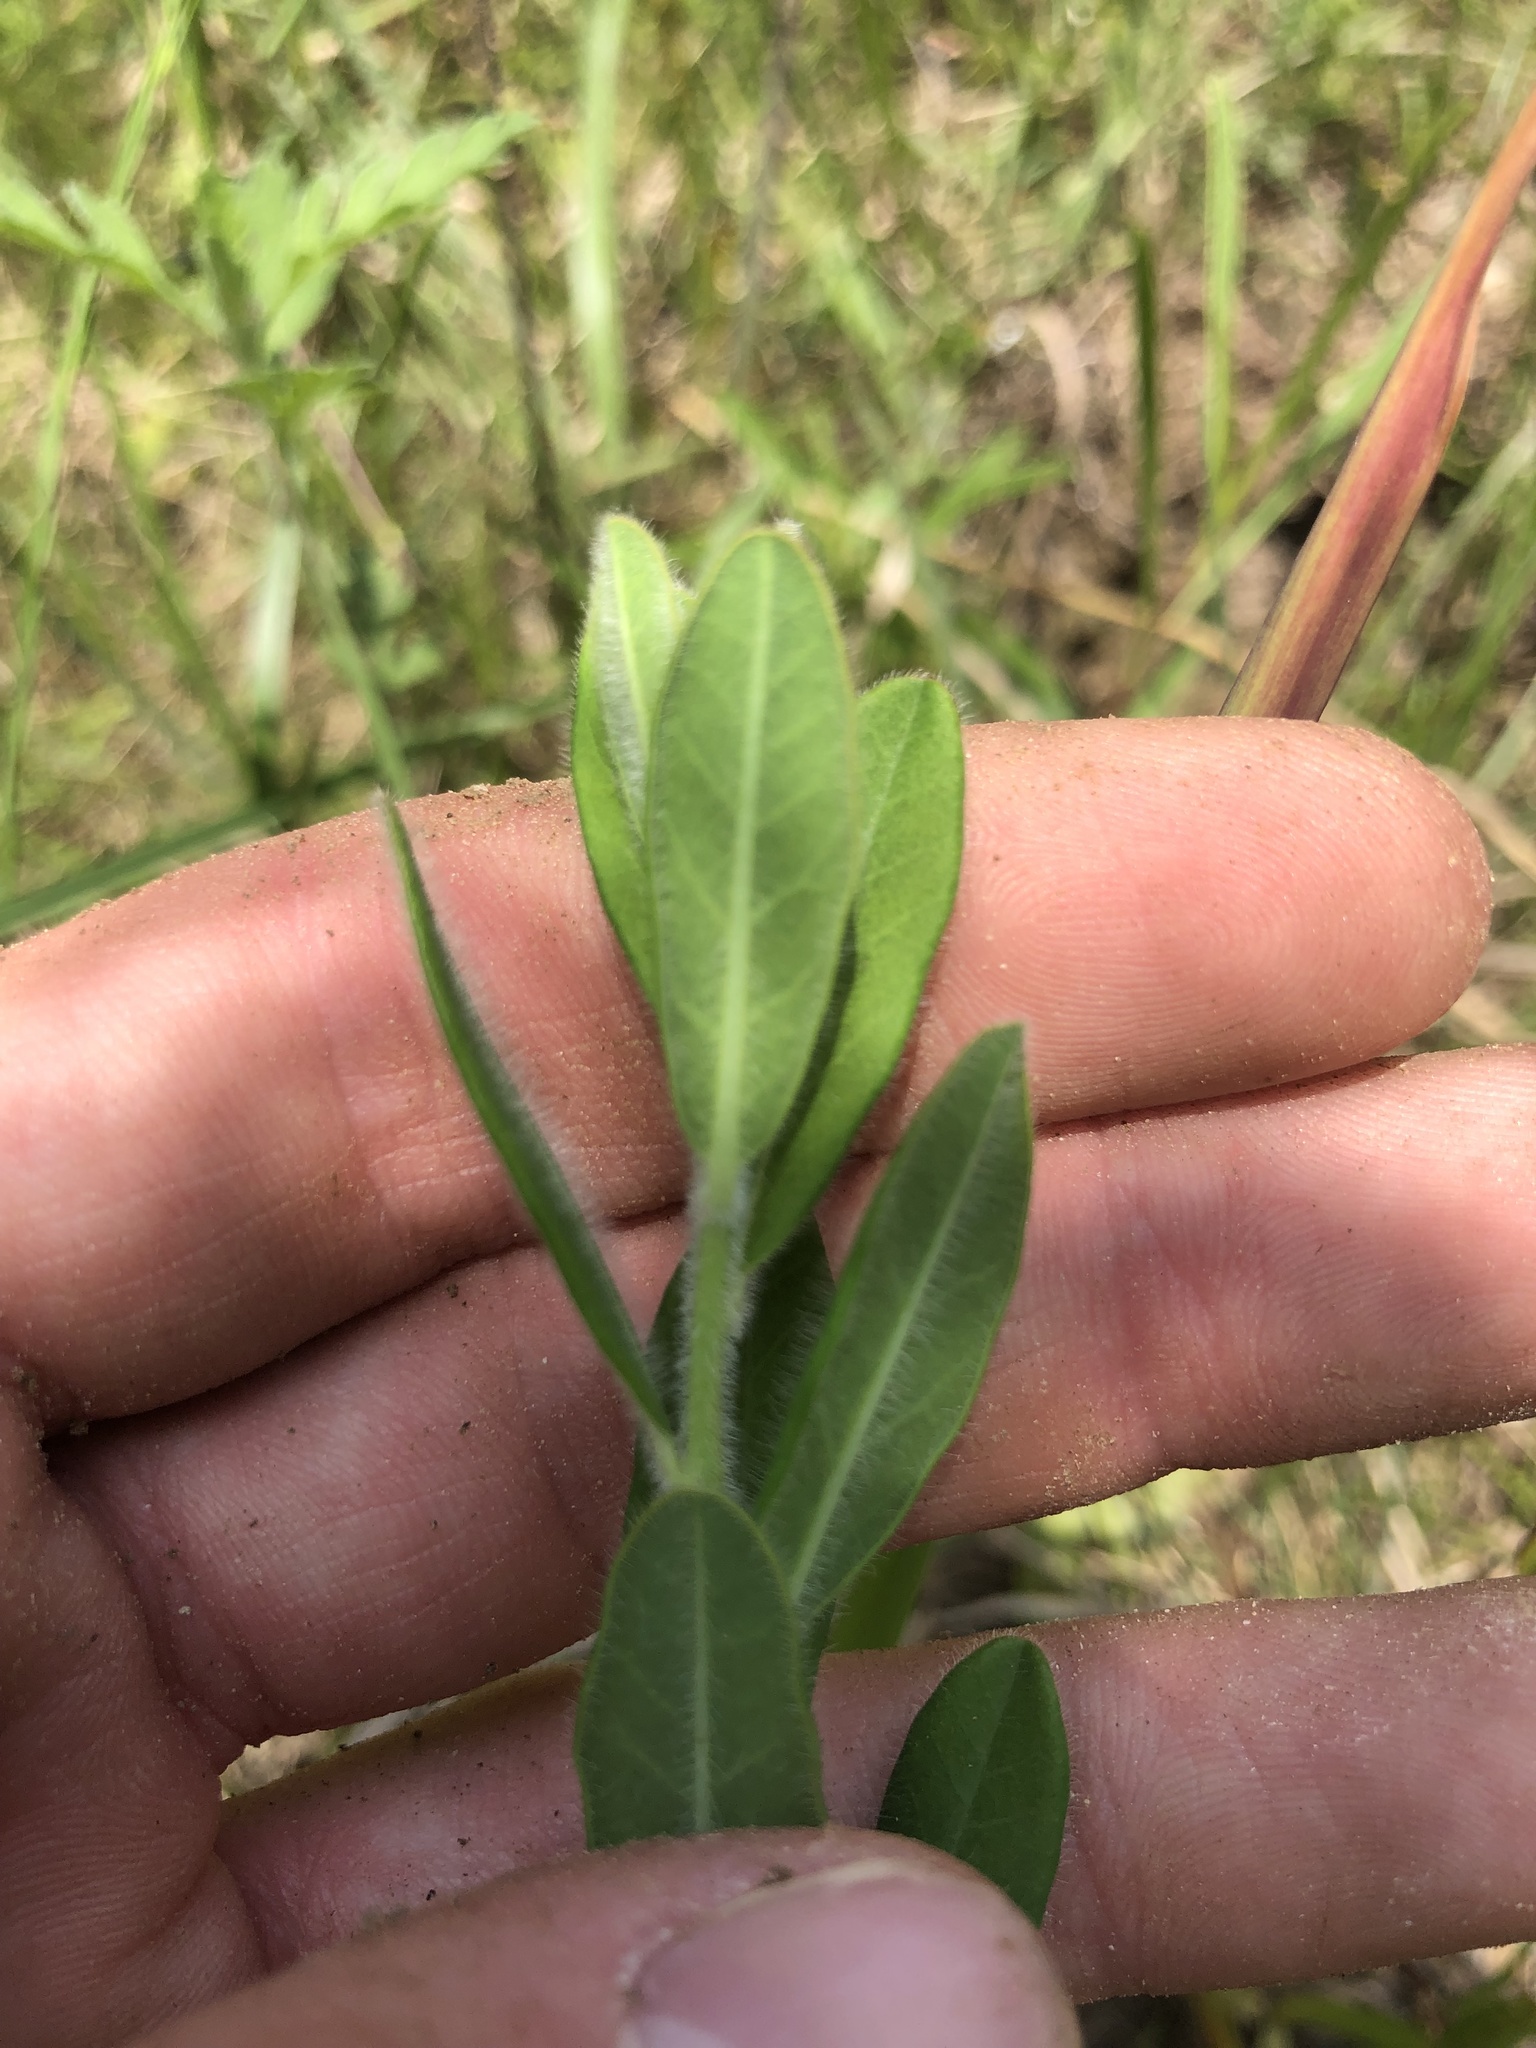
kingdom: Plantae
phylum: Tracheophyta
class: Magnoliopsida
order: Malpighiales
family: Euphorbiaceae
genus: Euphorbia
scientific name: Euphorbia corollata
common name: Flowering spurge
